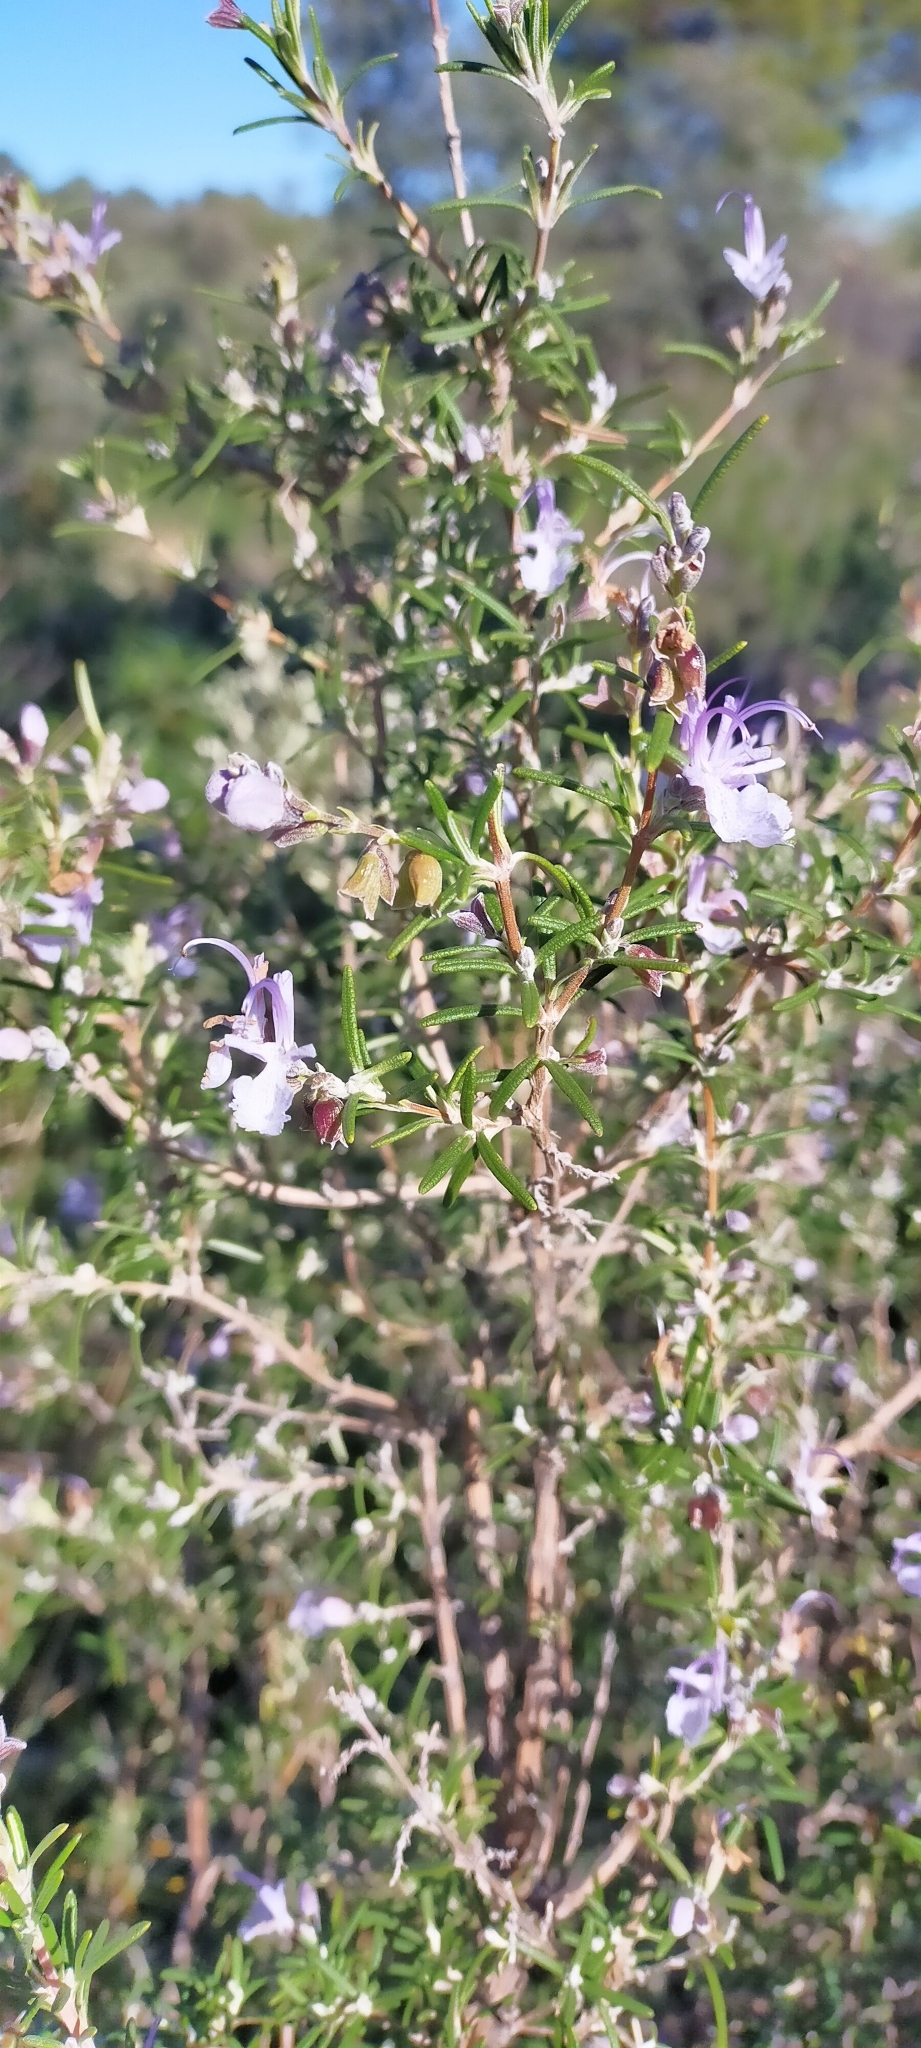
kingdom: Plantae
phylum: Tracheophyta
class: Magnoliopsida
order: Lamiales
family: Lamiaceae
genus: Salvia
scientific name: Salvia rosmarinus
